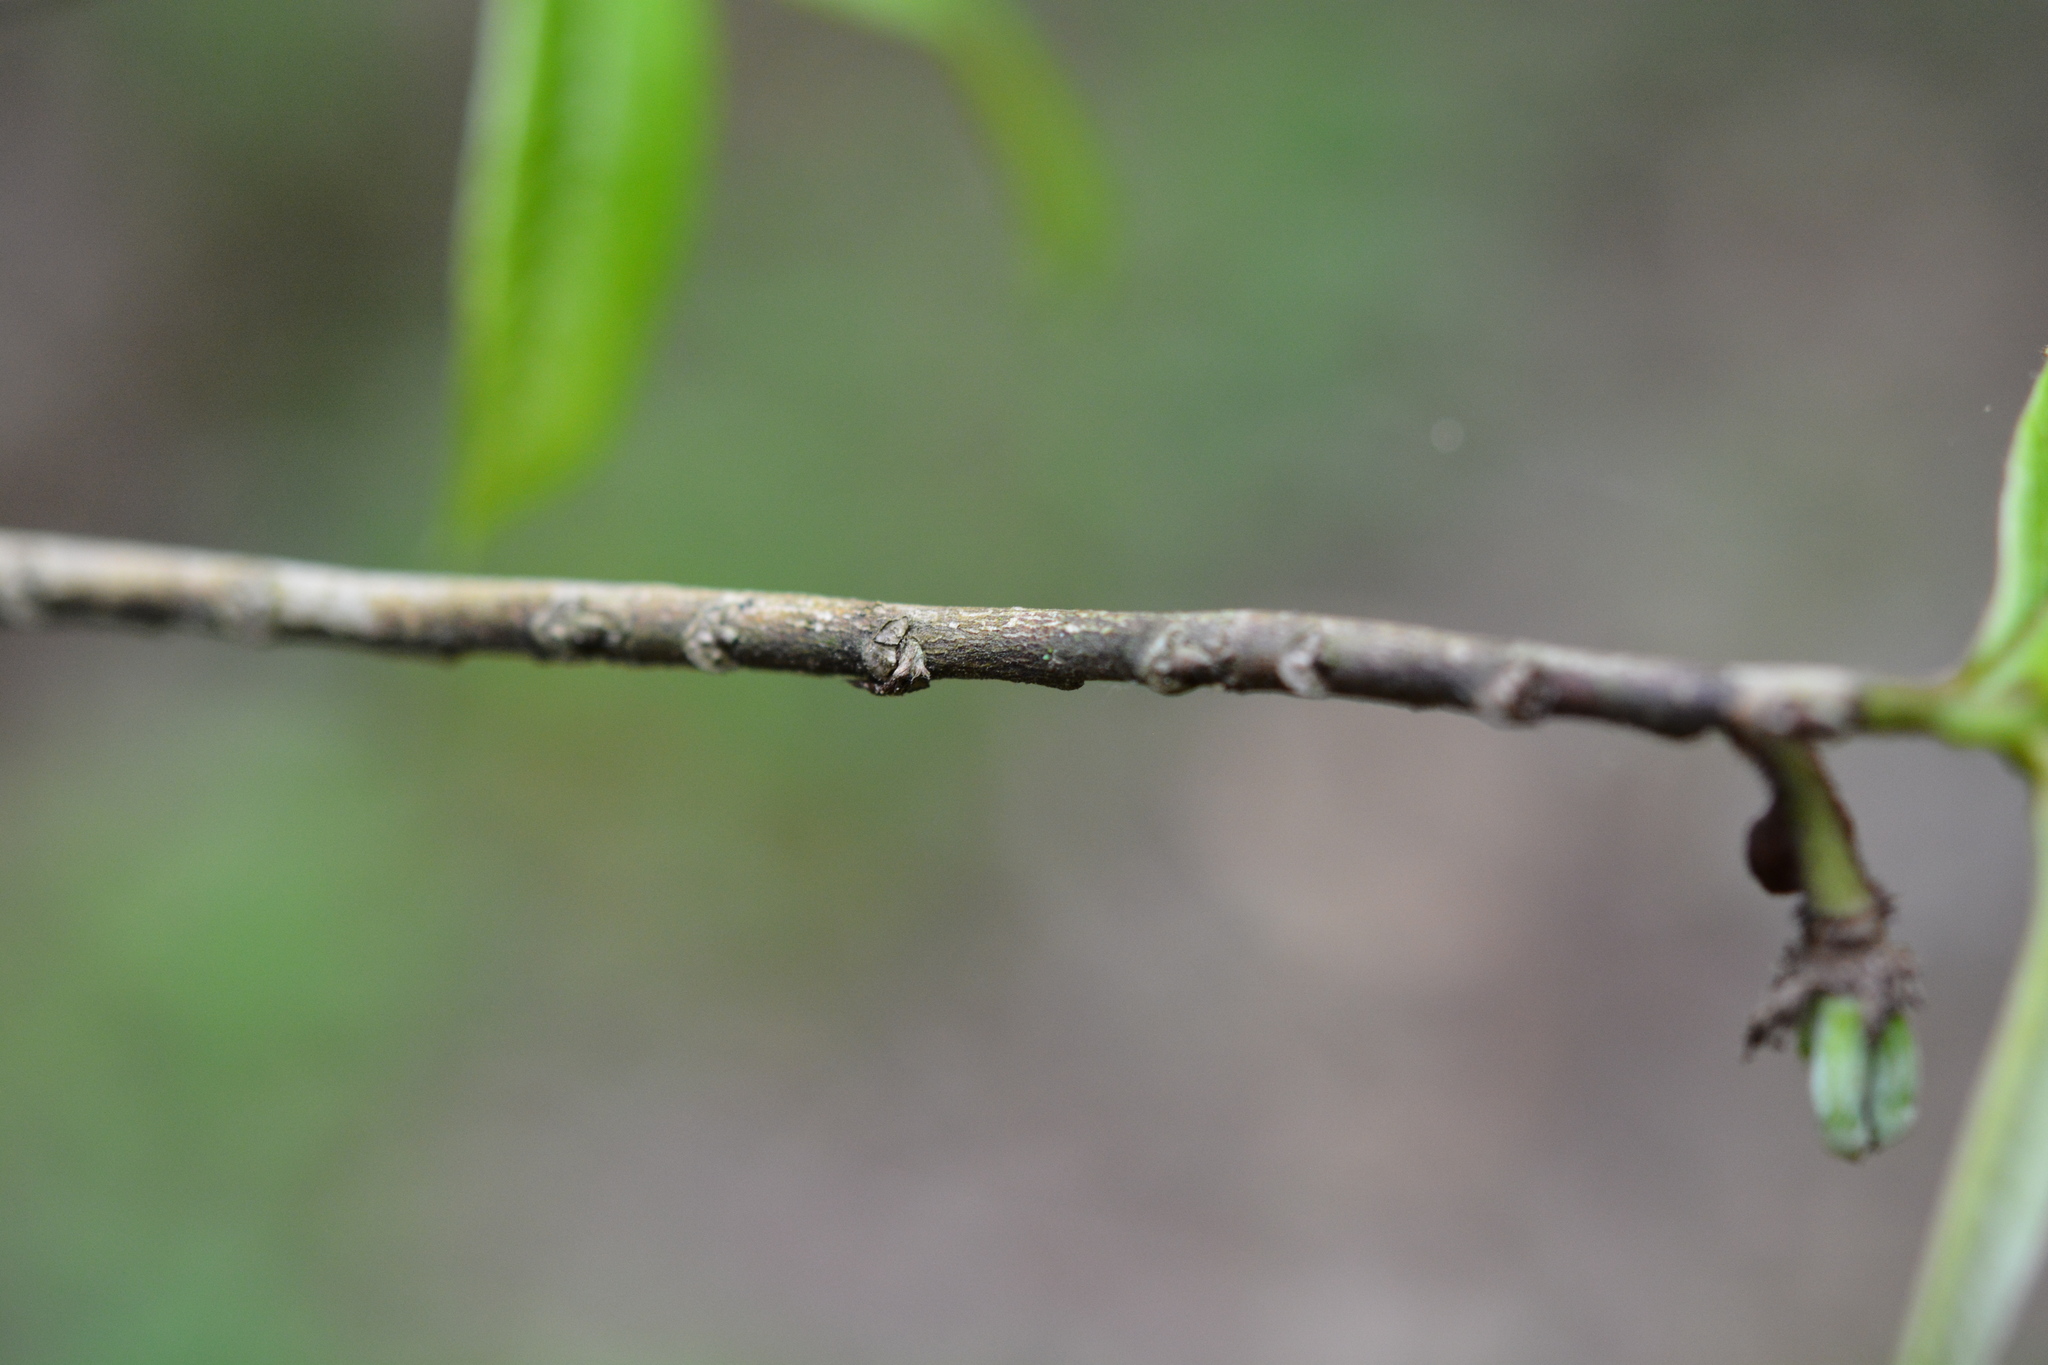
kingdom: Plantae
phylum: Tracheophyta
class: Magnoliopsida
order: Magnoliales
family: Annonaceae
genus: Asimina
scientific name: Asimina triloba
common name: Dog-banana
